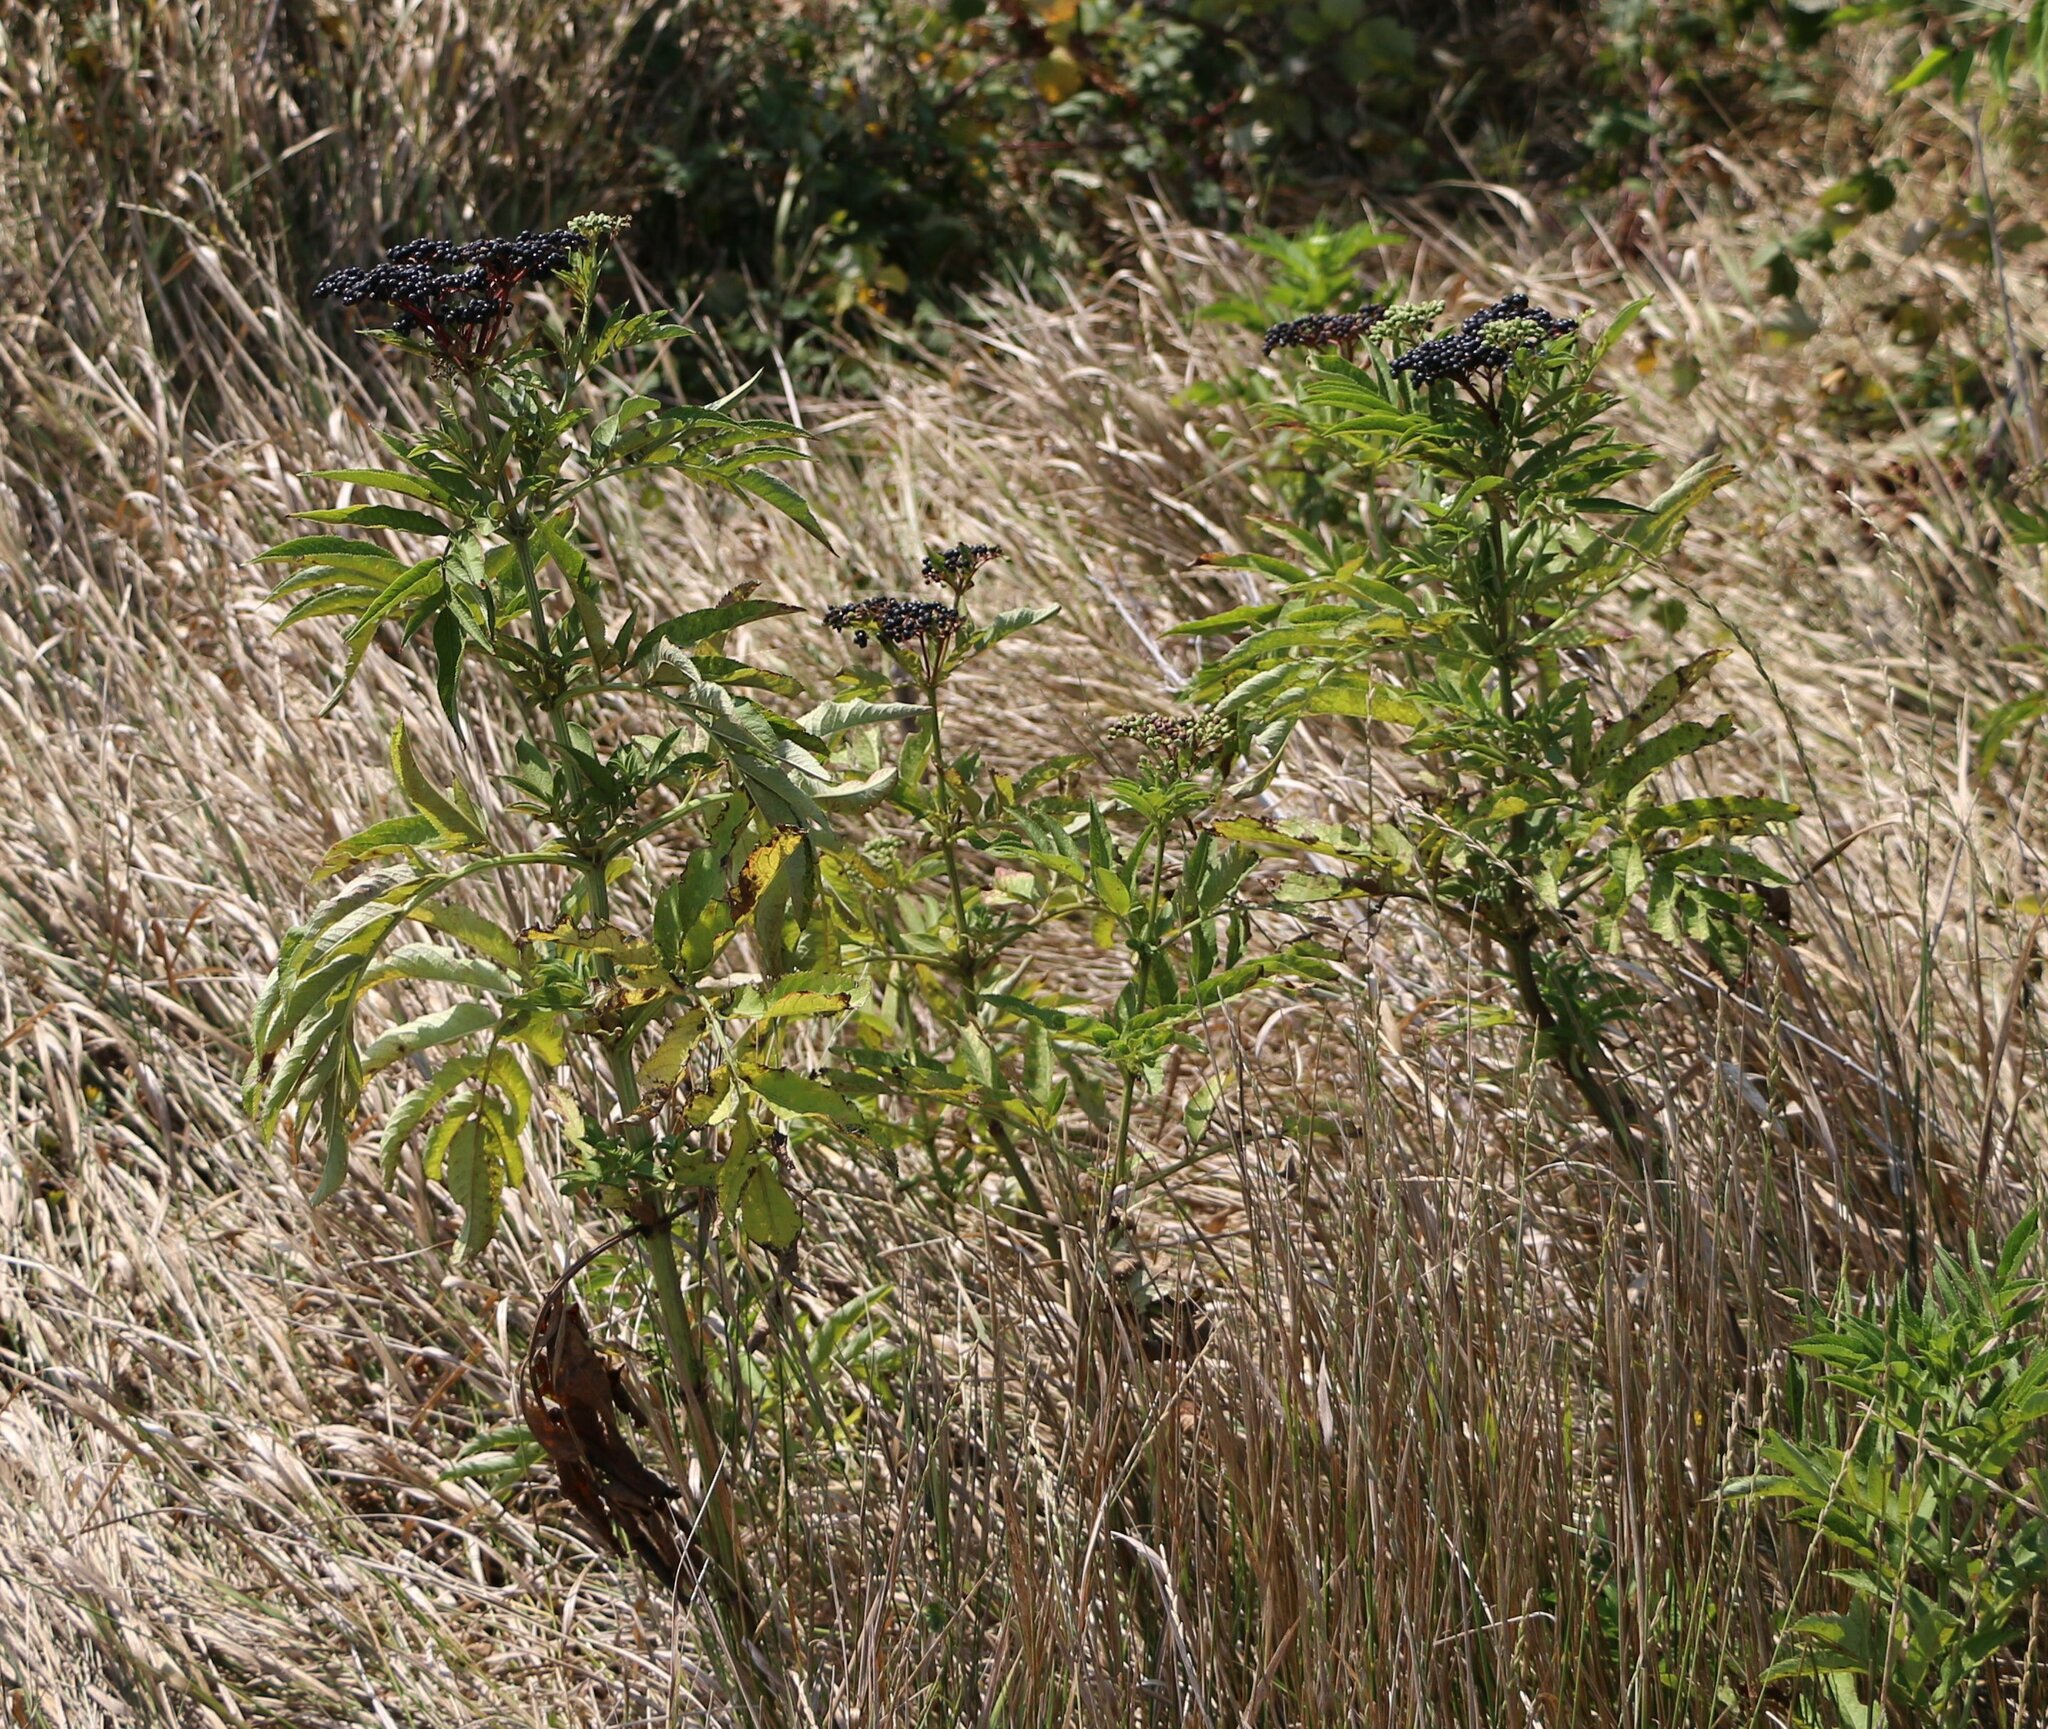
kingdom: Plantae
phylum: Tracheophyta
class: Magnoliopsida
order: Dipsacales
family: Viburnaceae
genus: Sambucus
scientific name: Sambucus ebulus
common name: Dwarf elder
